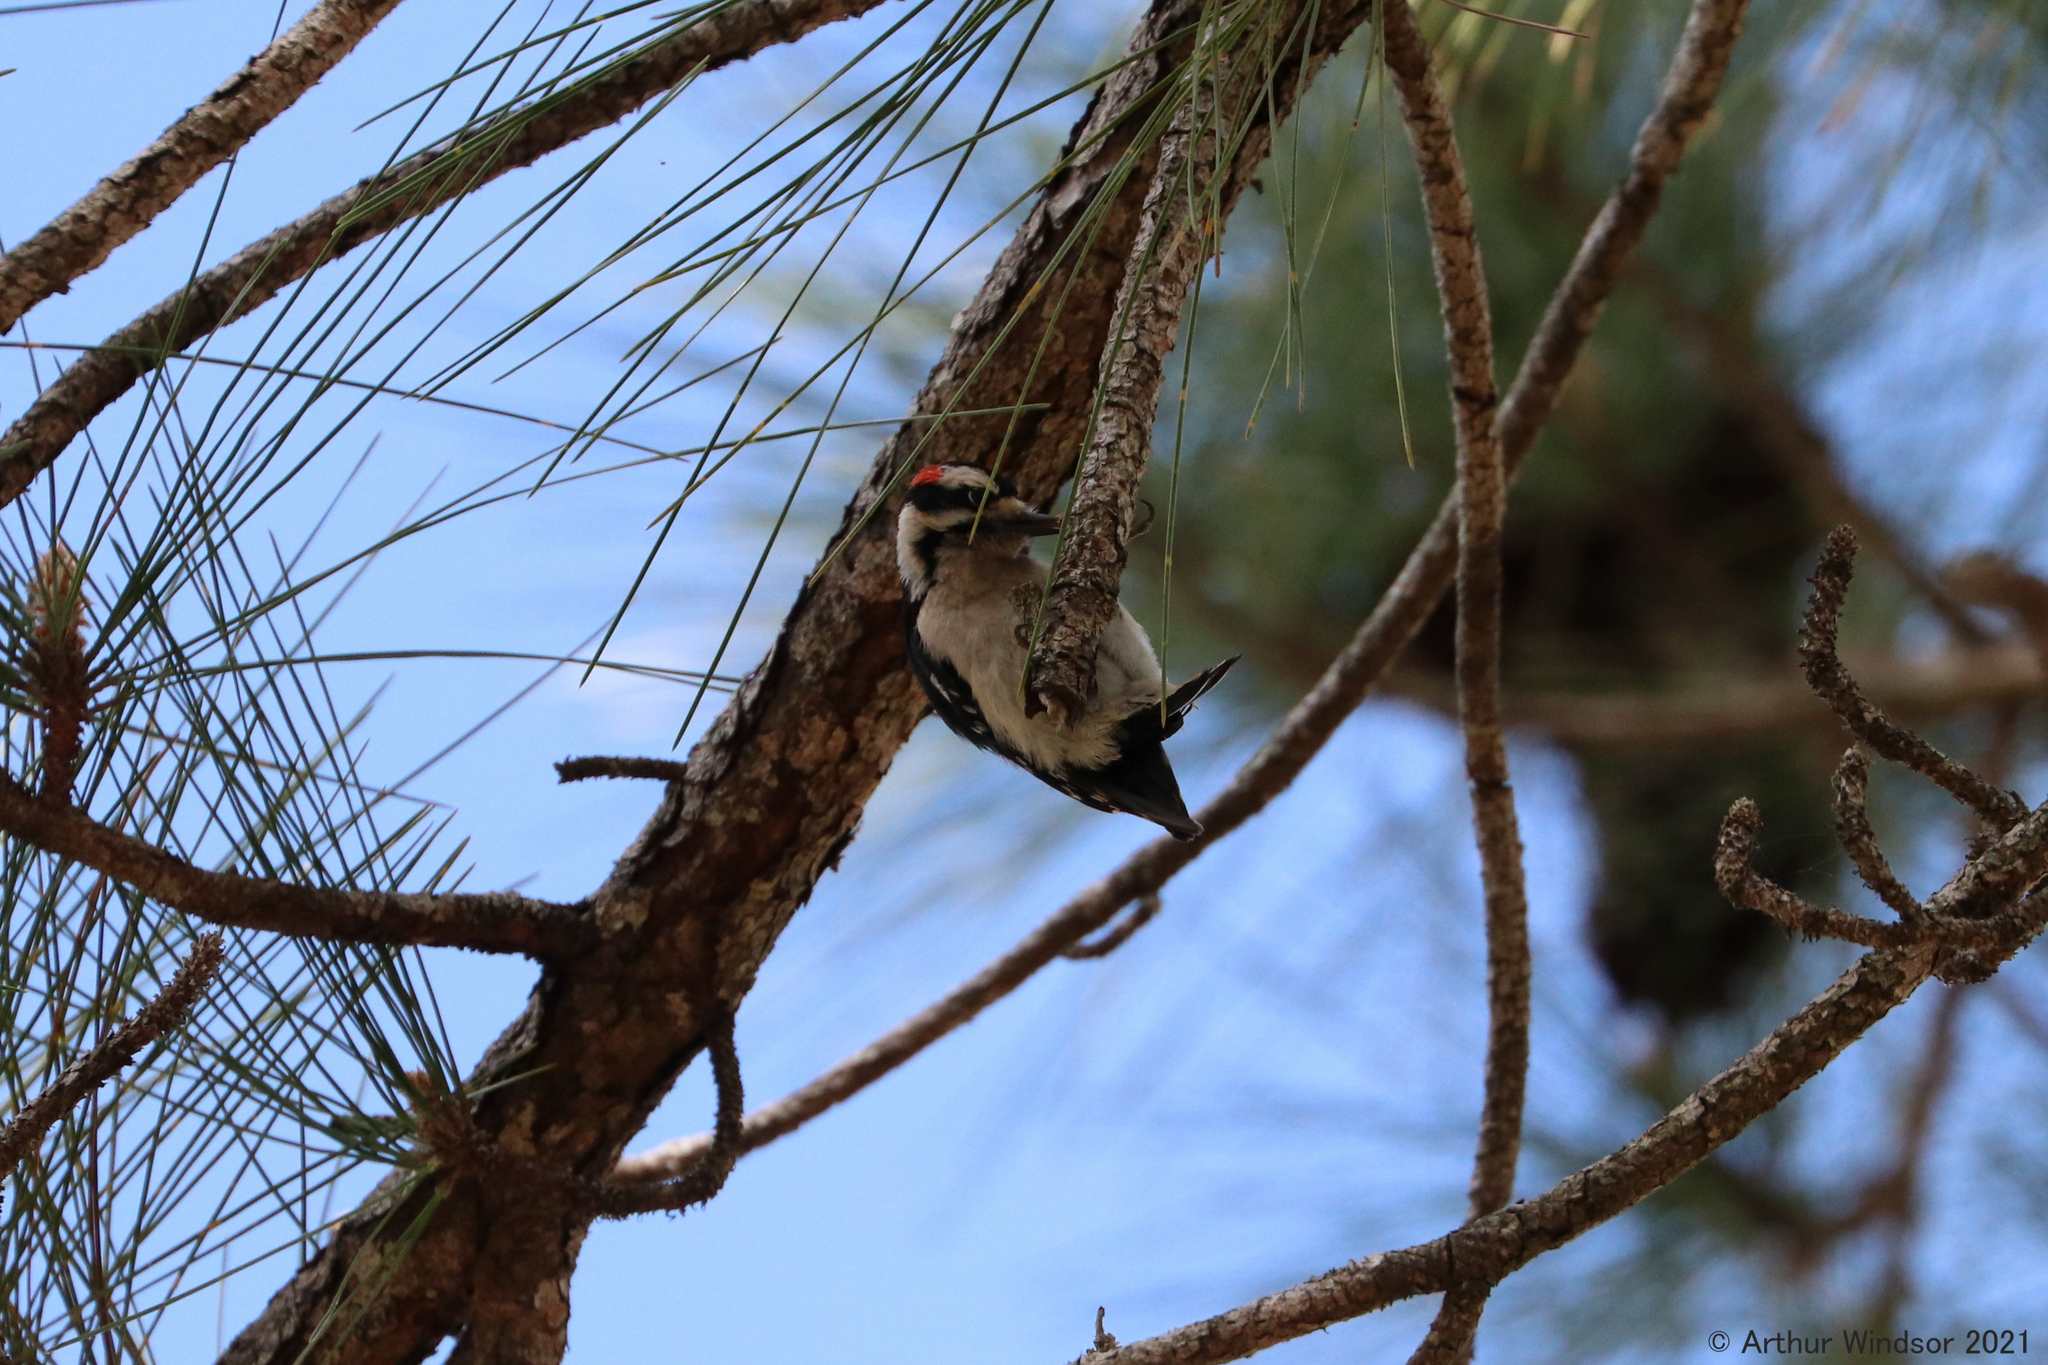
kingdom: Animalia
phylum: Chordata
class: Aves
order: Piciformes
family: Picidae
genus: Dryobates
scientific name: Dryobates pubescens
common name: Downy woodpecker
